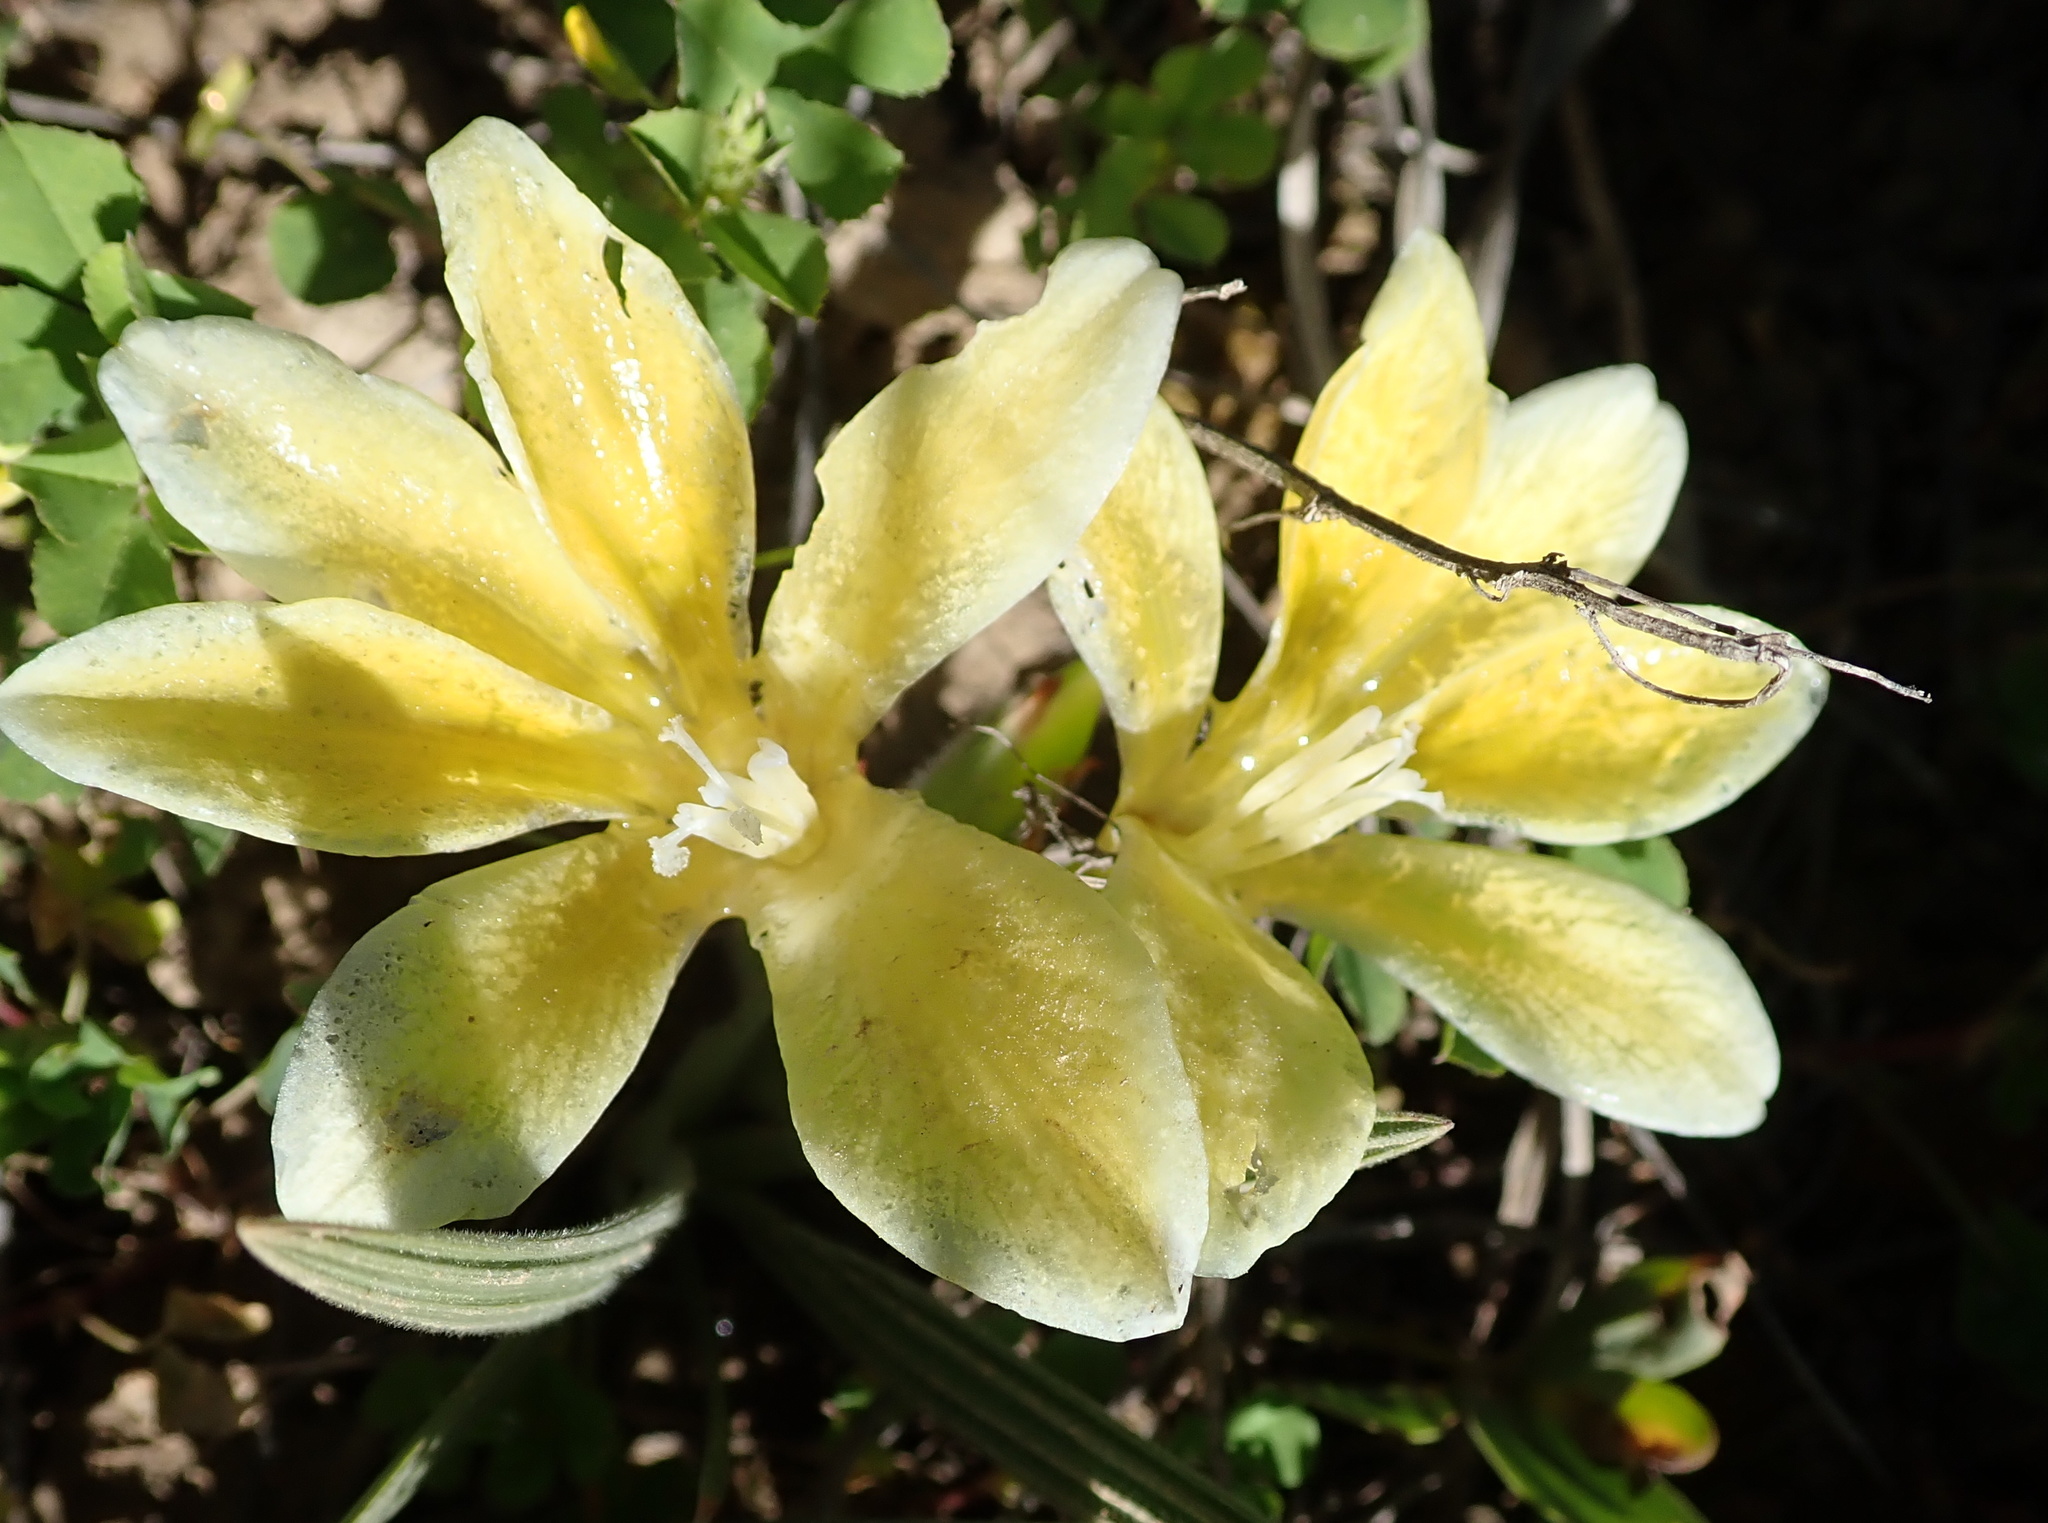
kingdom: Plantae
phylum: Tracheophyta
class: Liliopsida
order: Asparagales
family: Iridaceae
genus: Babiana
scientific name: Babiana vanzijliae
